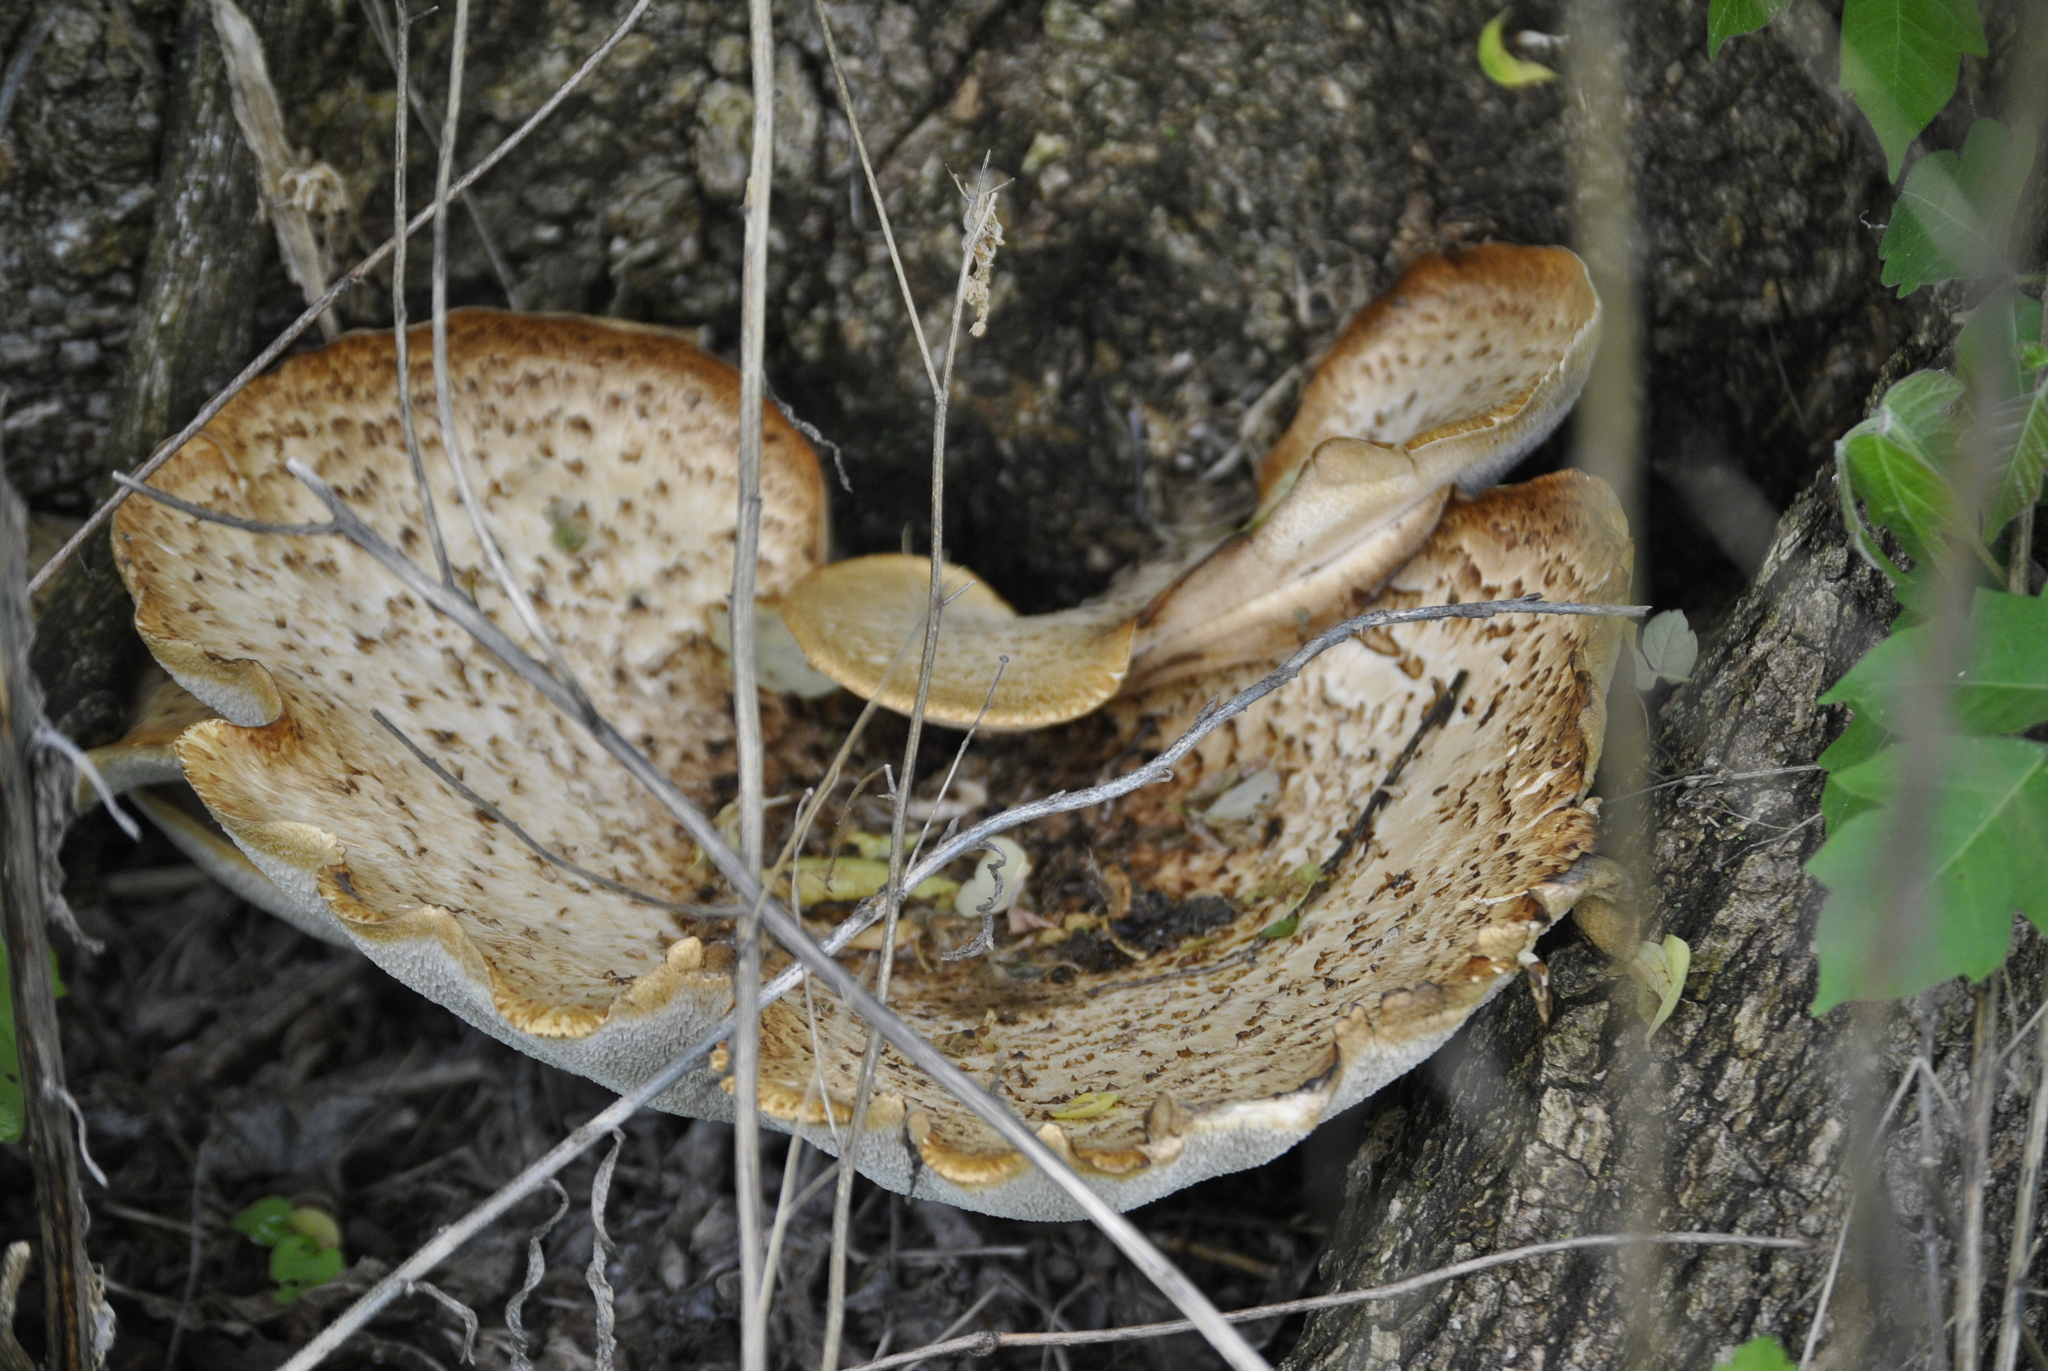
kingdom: Fungi
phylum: Basidiomycota
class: Agaricomycetes
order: Polyporales
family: Polyporaceae
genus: Cerioporus
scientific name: Cerioporus squamosus
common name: Dryad's saddle
